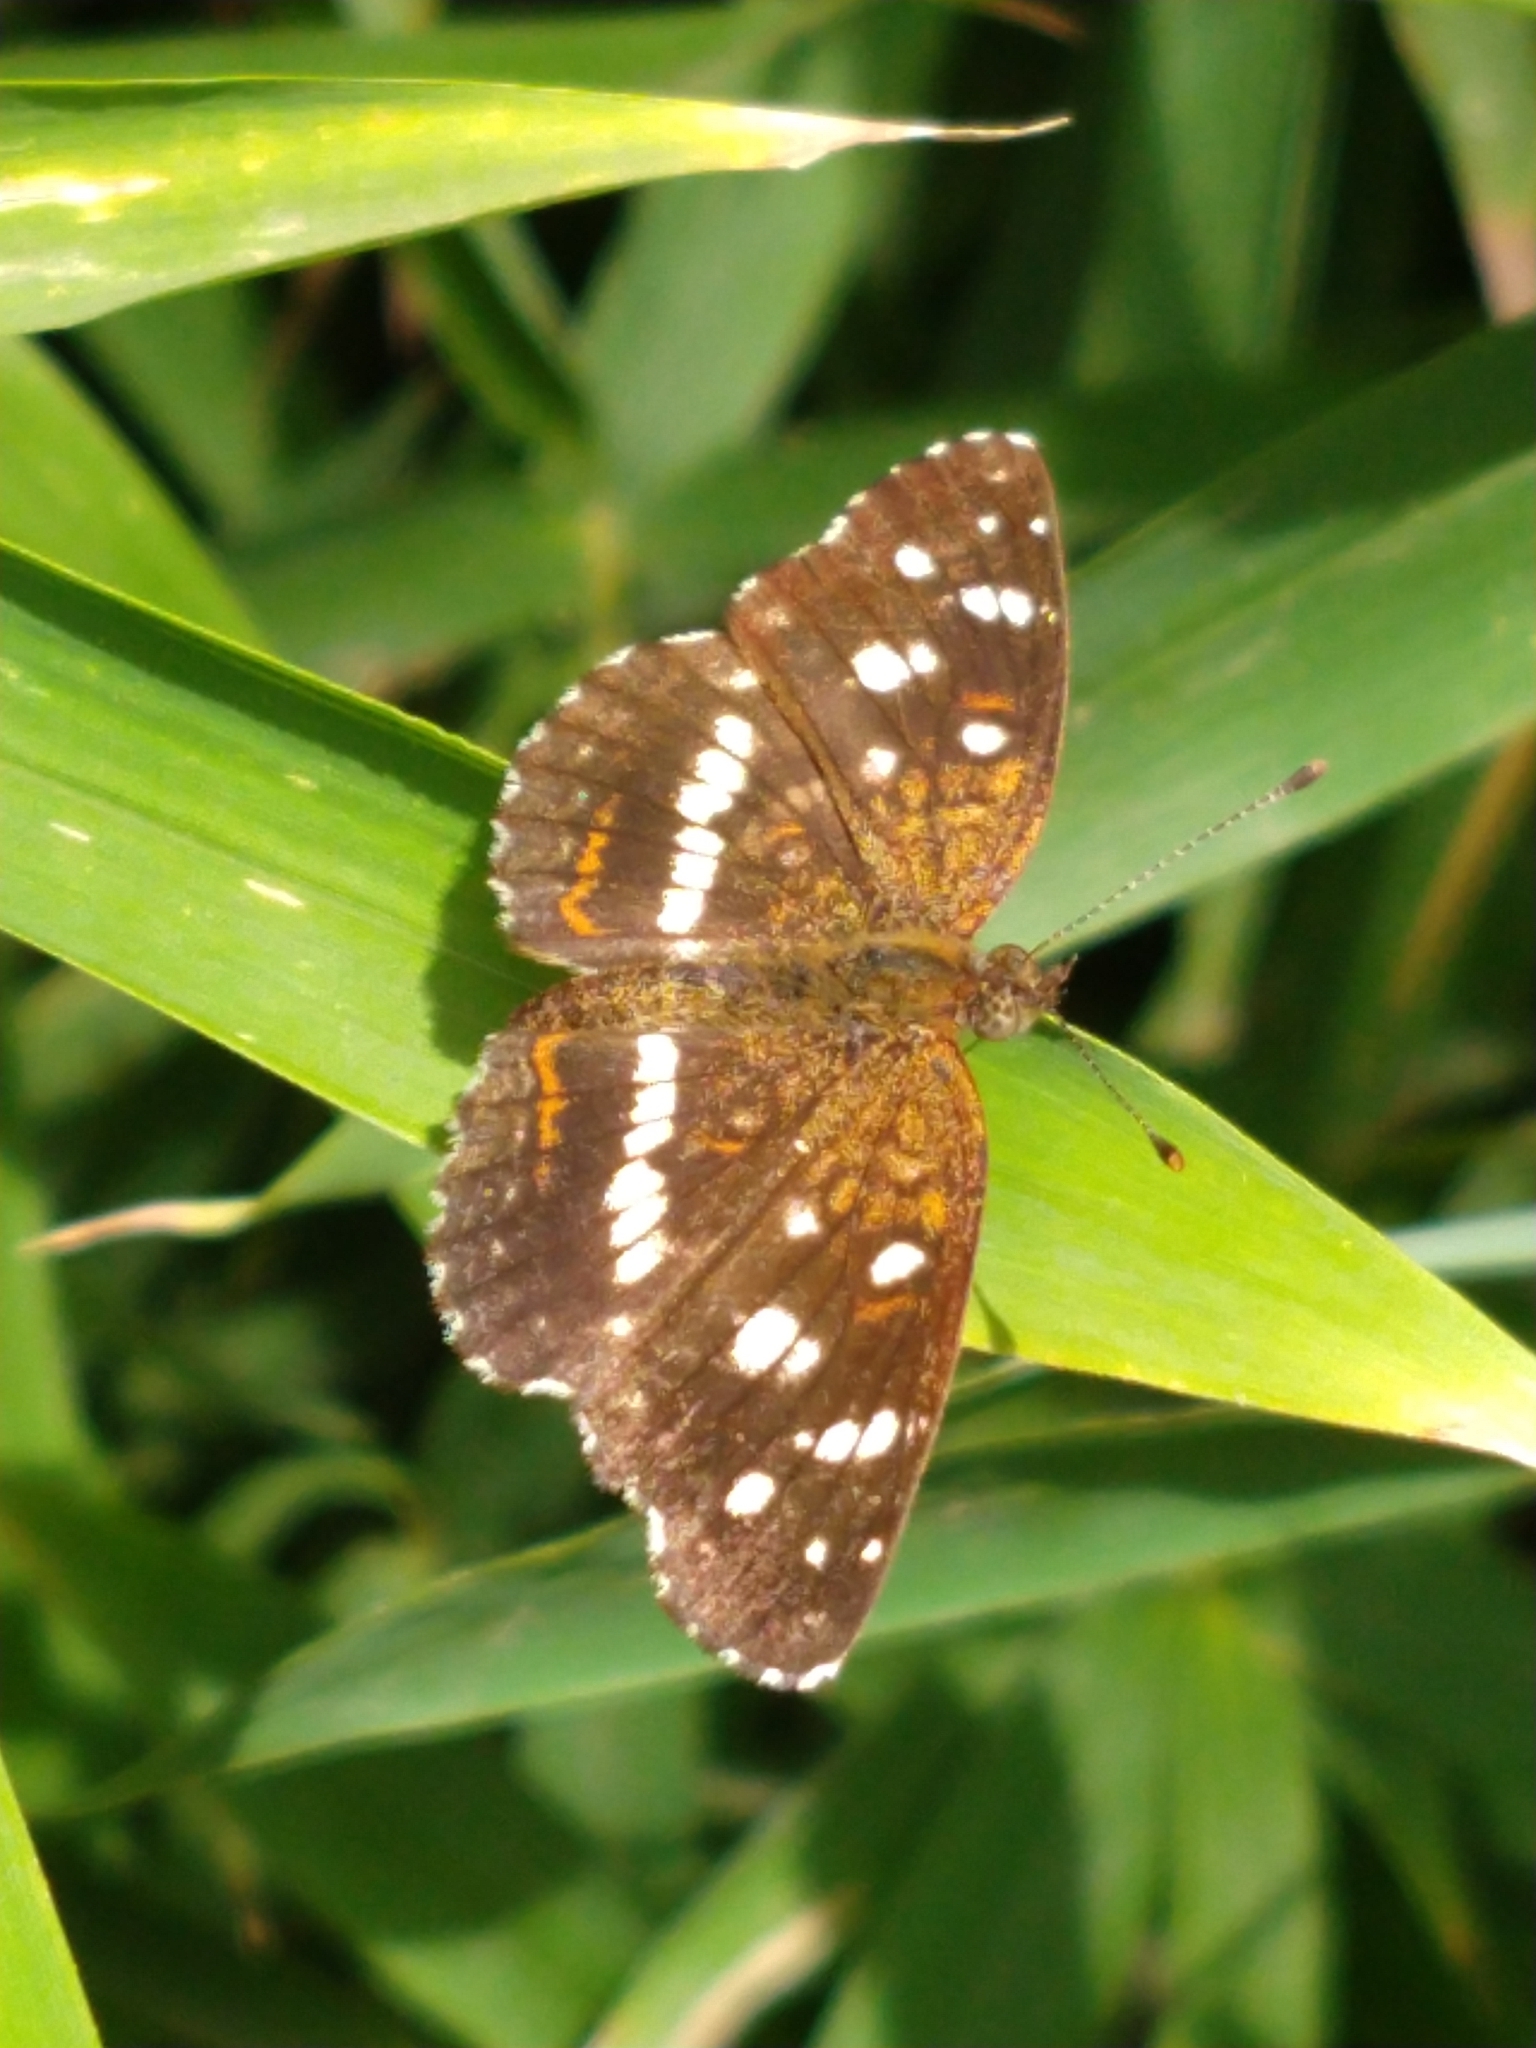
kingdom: Animalia
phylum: Arthropoda
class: Insecta
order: Lepidoptera
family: Nymphalidae
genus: Ortilia
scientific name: Ortilia ithra
